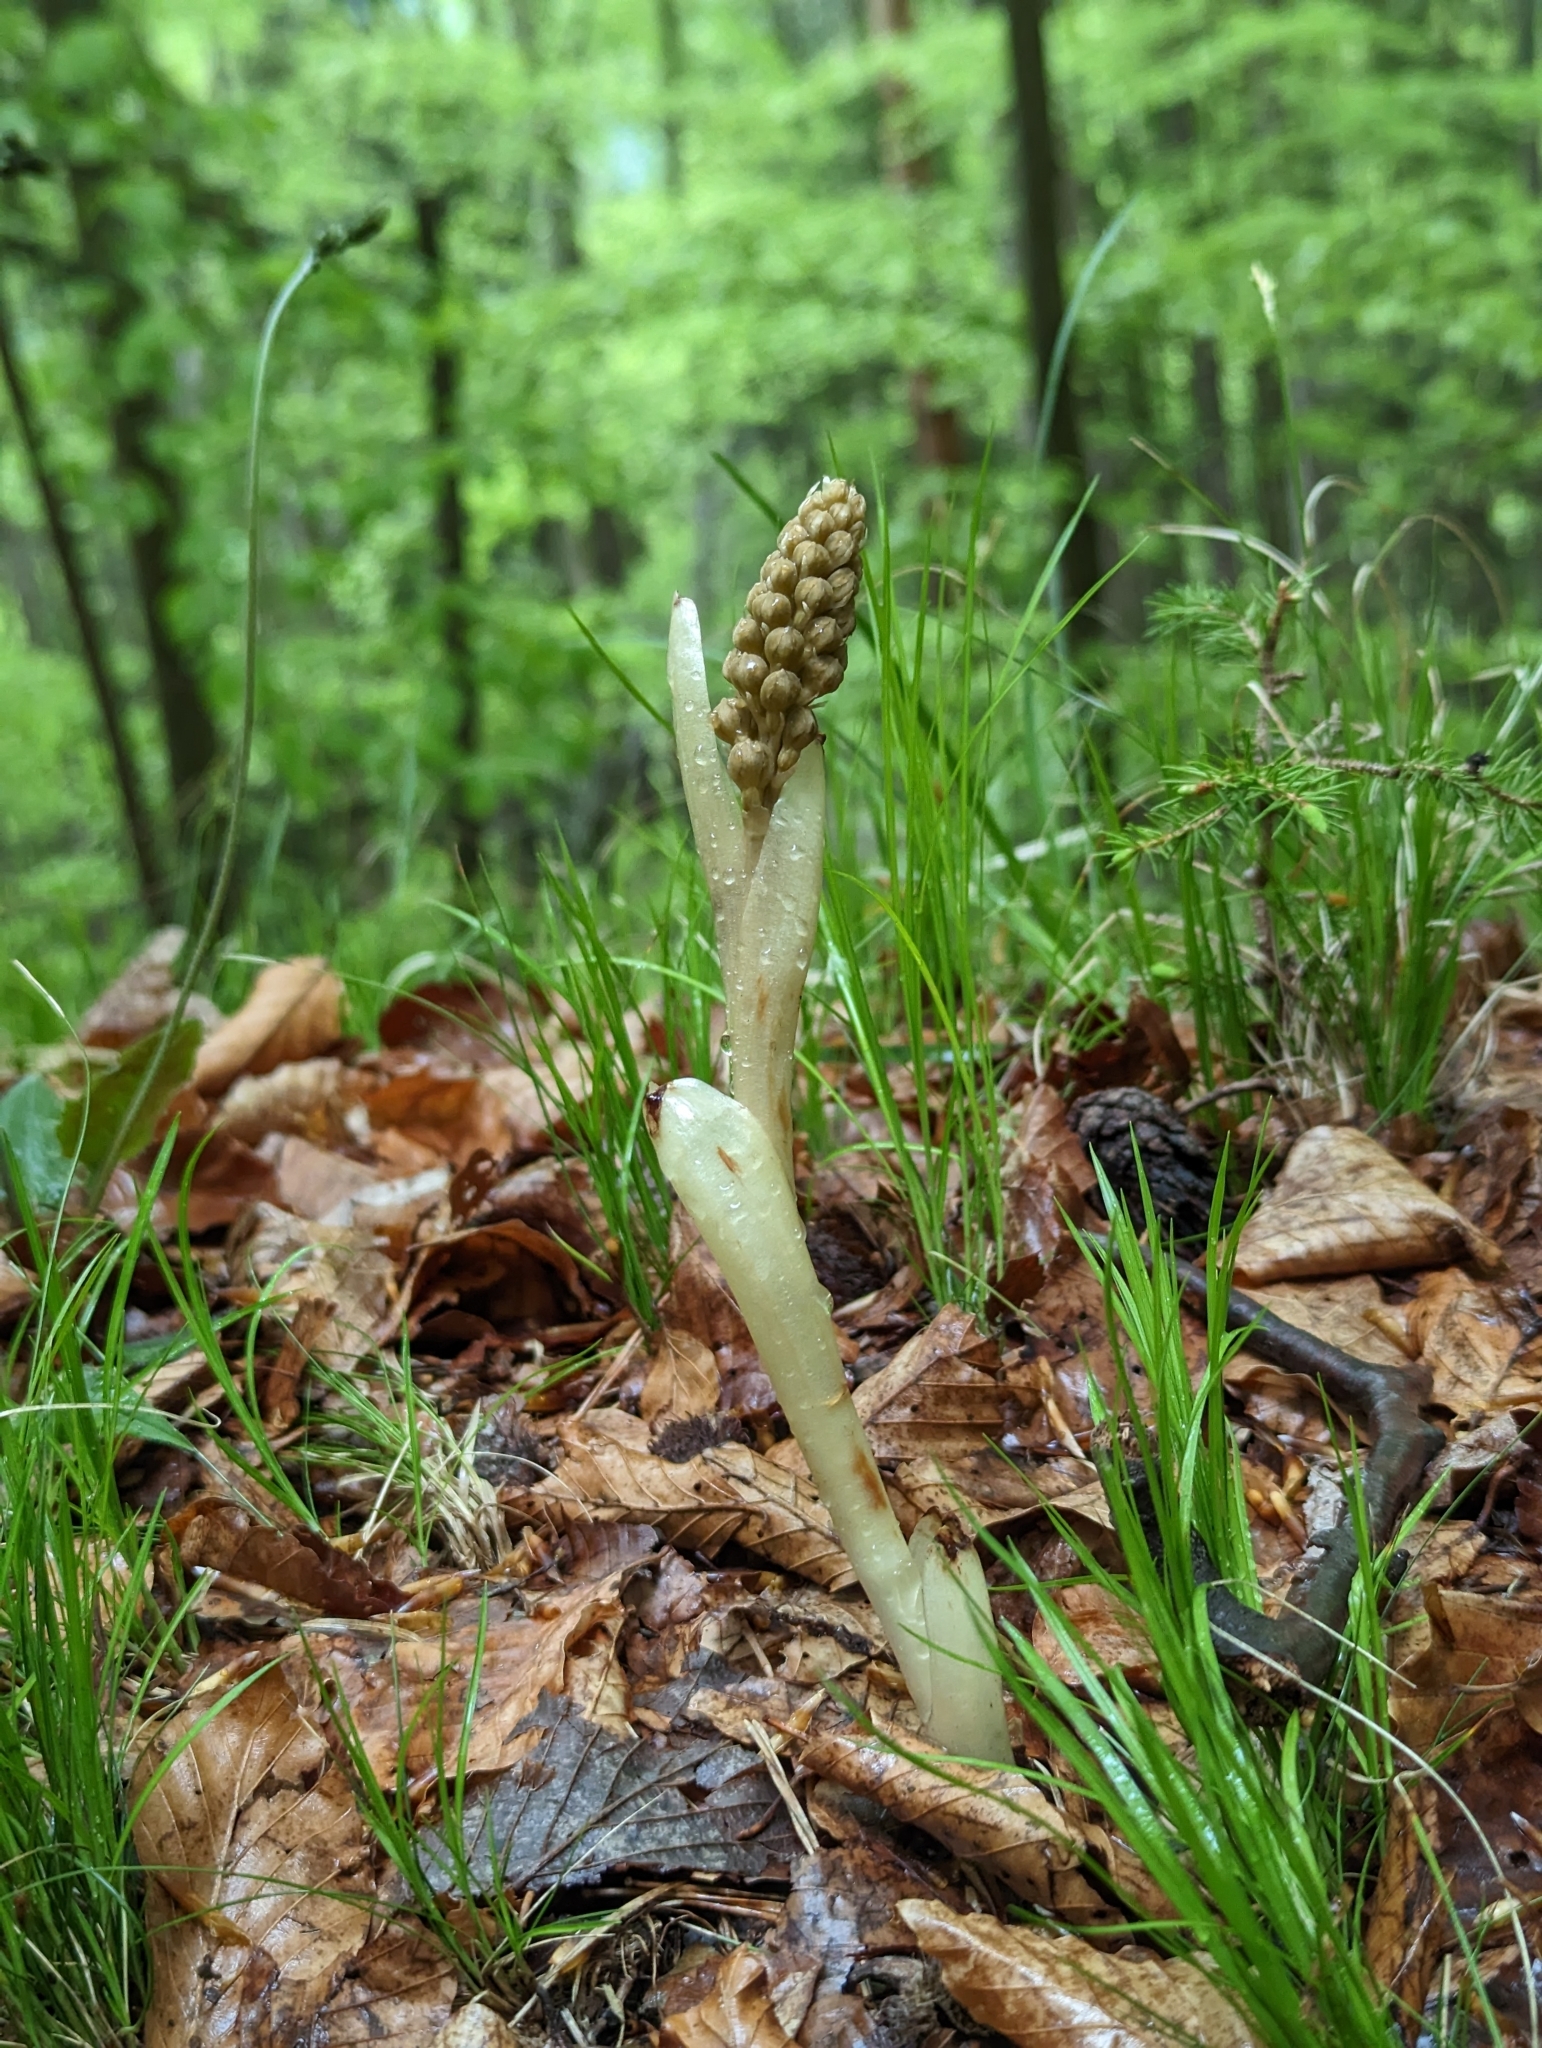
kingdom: Plantae
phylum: Tracheophyta
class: Liliopsida
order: Asparagales
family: Orchidaceae
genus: Neottia
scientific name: Neottia nidus-avis
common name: Bird's-nest orchid
